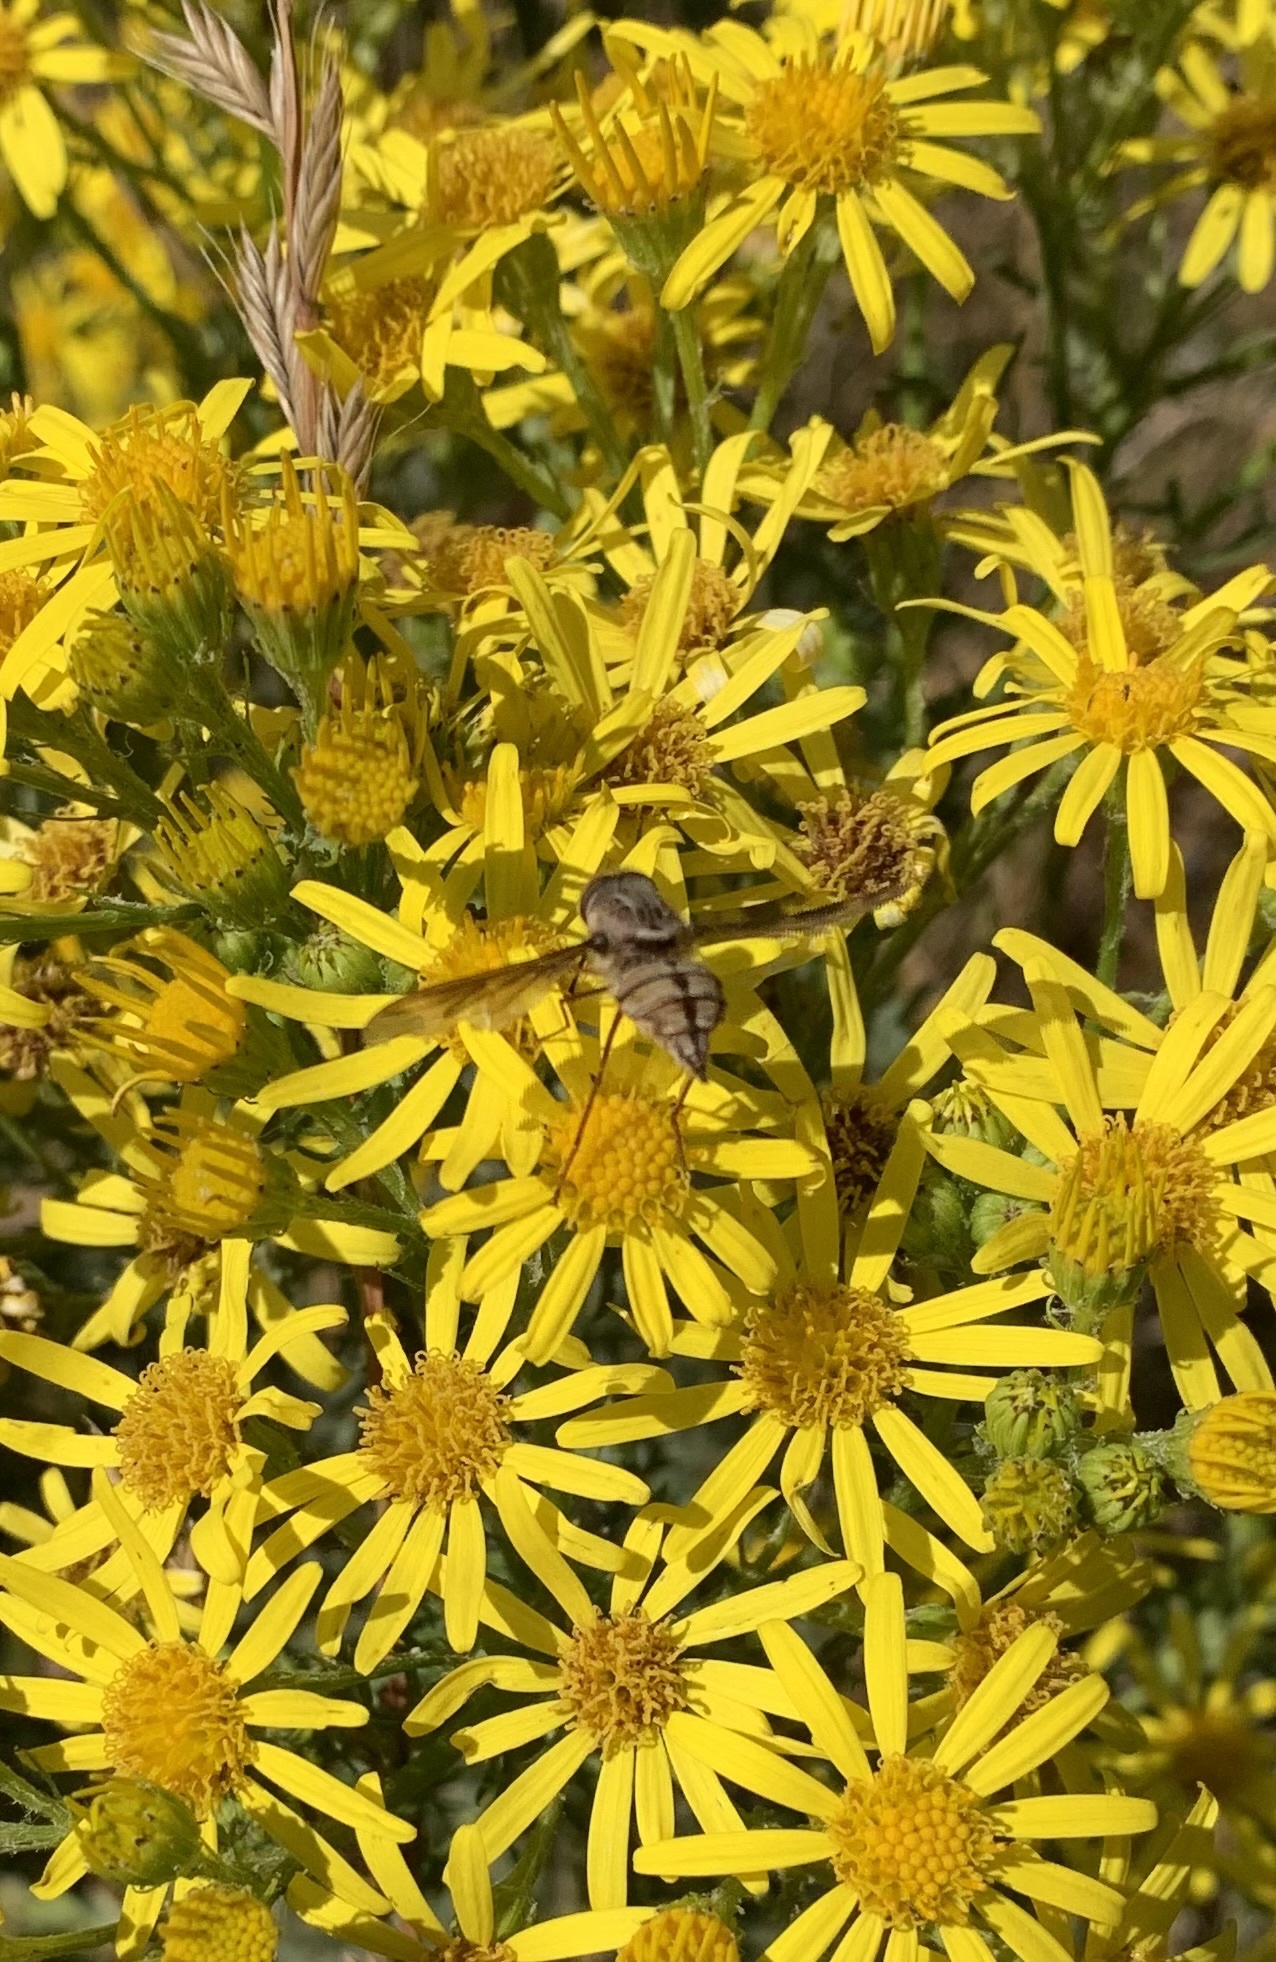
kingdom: Animalia
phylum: Arthropoda
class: Insecta
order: Diptera
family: Nemestrinidae
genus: Trichophthalma
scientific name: Trichophthalma nubipennis
